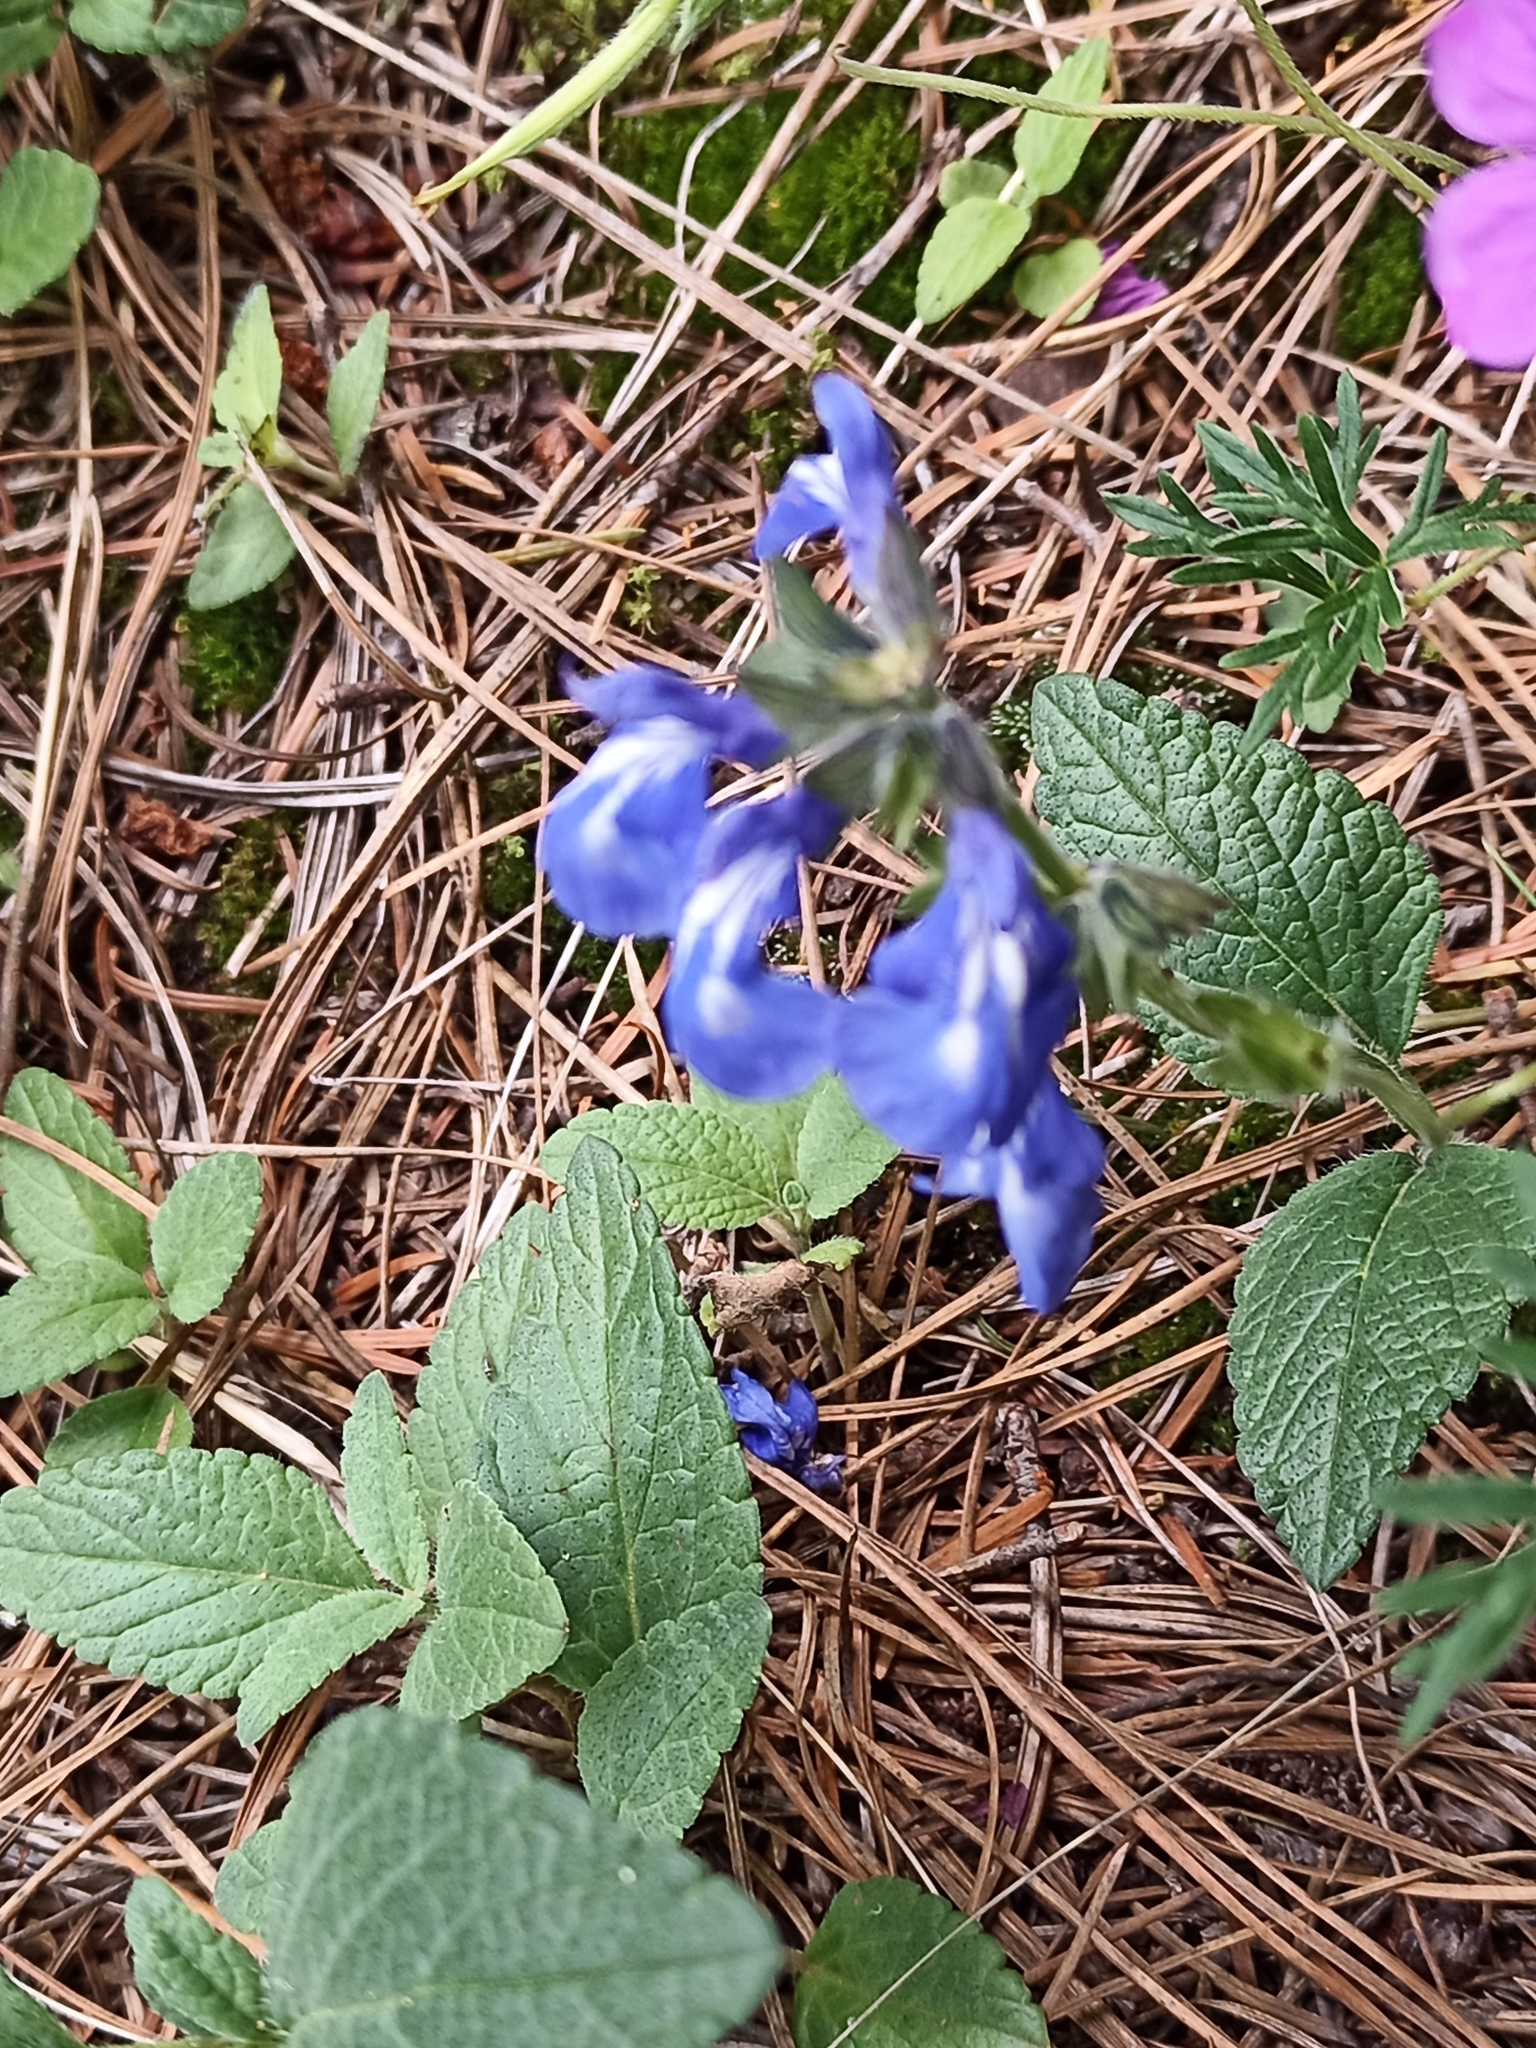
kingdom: Plantae
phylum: Tracheophyta
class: Magnoliopsida
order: Lamiales
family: Lamiaceae
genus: Salvia
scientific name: Salvia prunelloides
